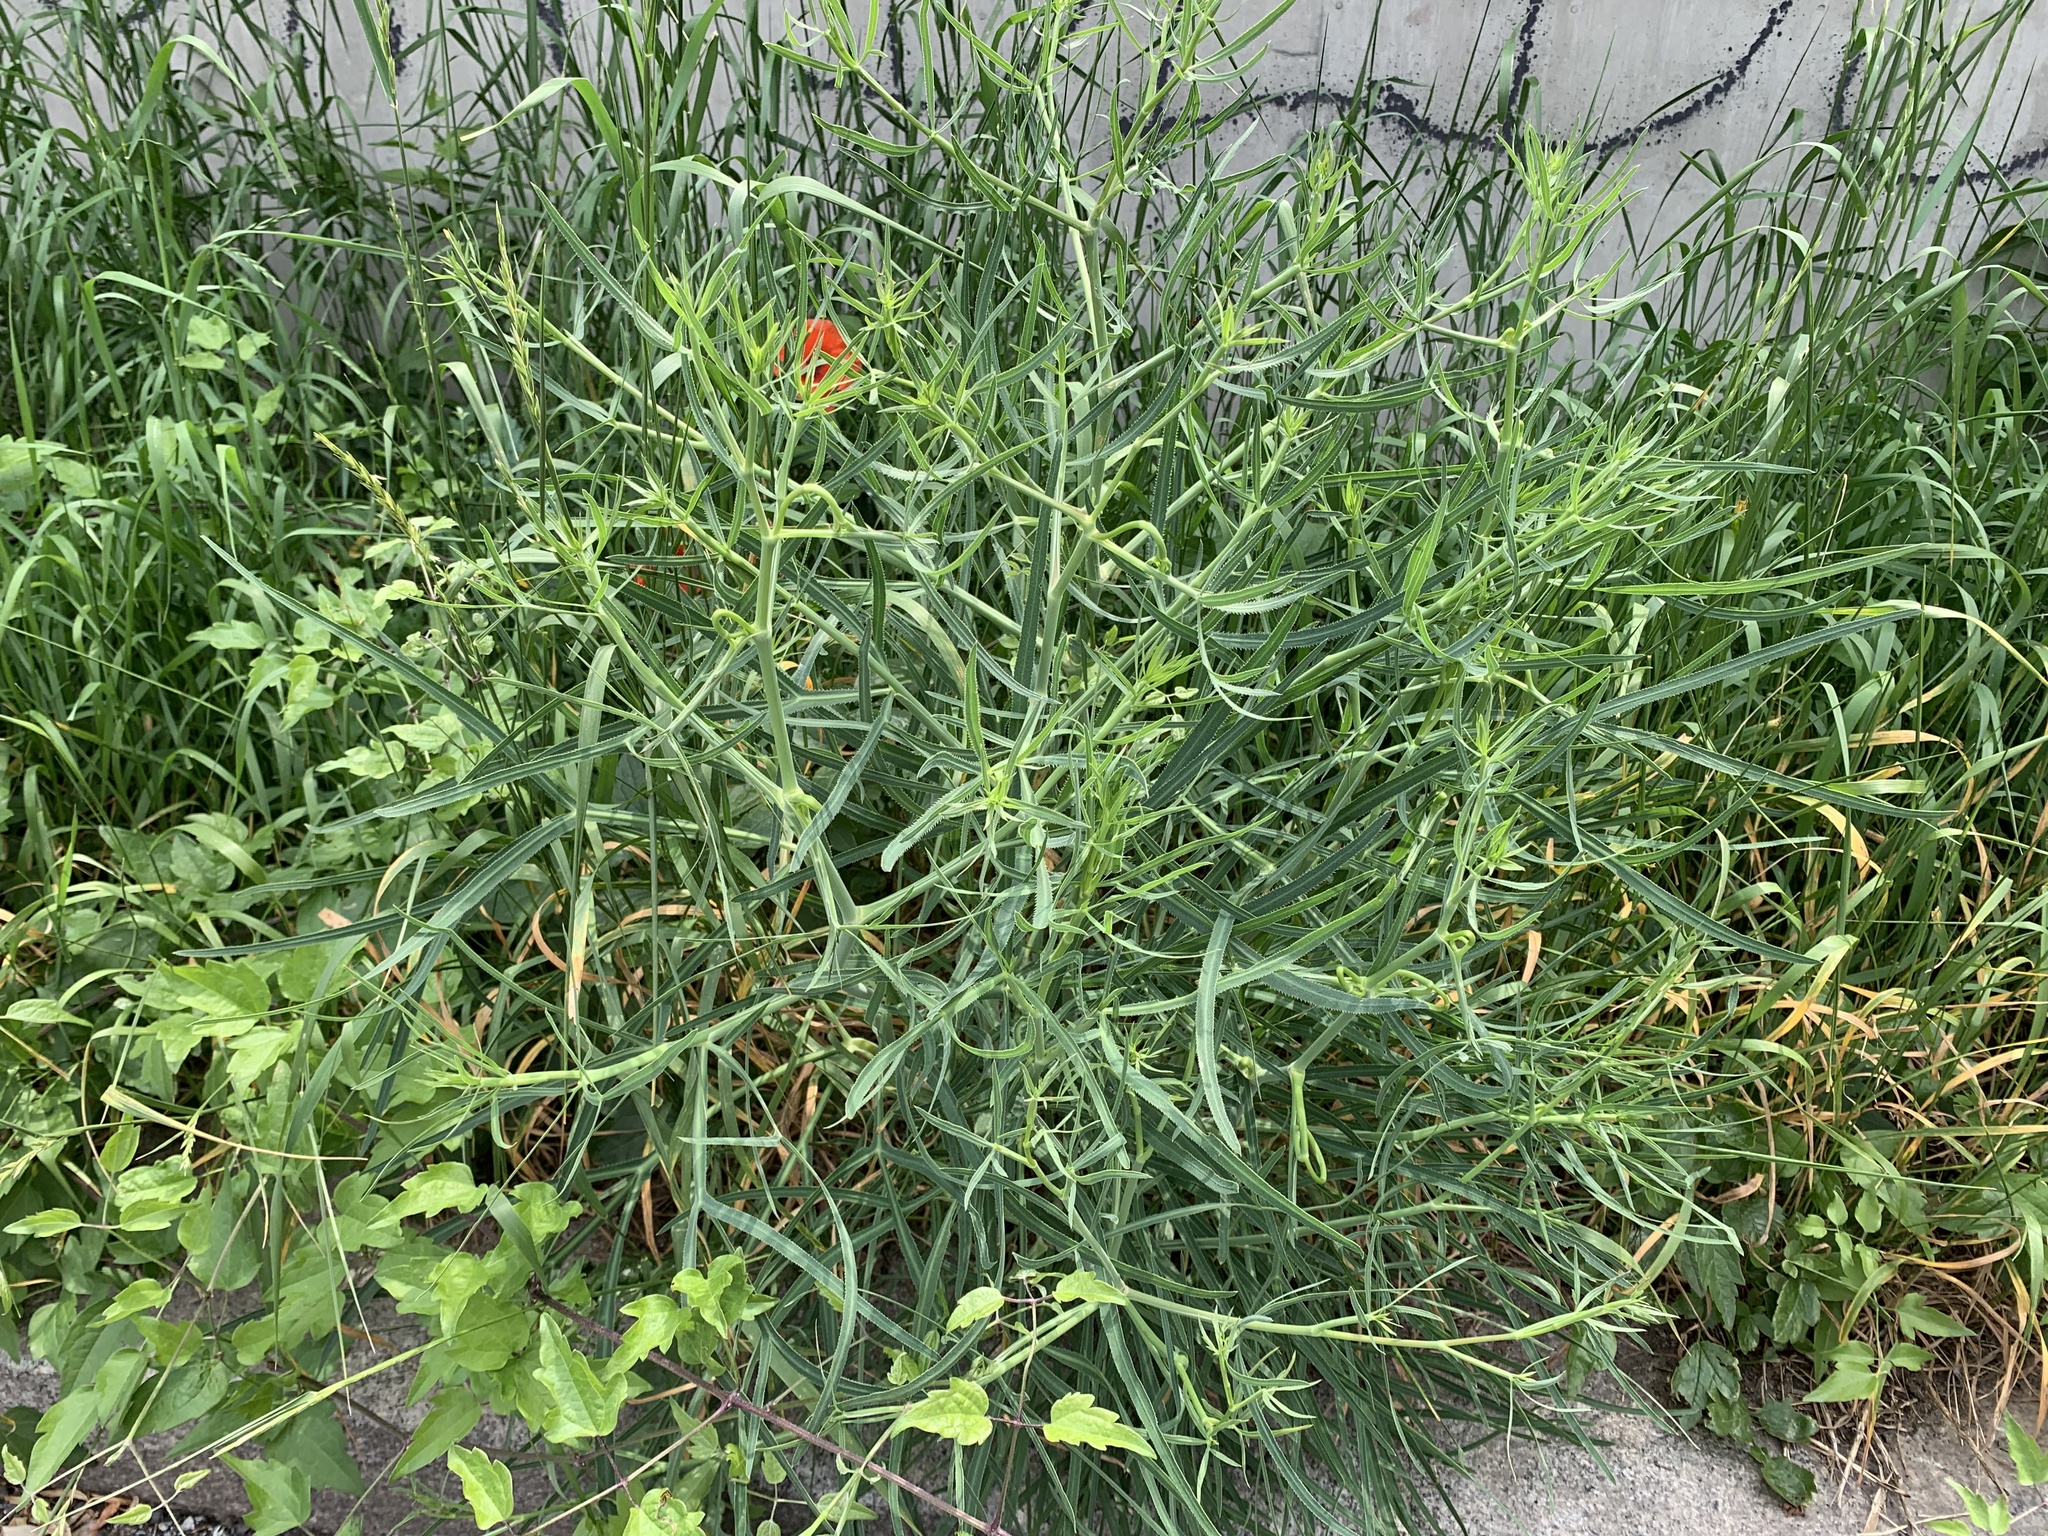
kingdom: Plantae
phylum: Tracheophyta
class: Magnoliopsida
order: Apiales
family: Apiaceae
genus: Falcaria
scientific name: Falcaria vulgaris
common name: Longleaf
